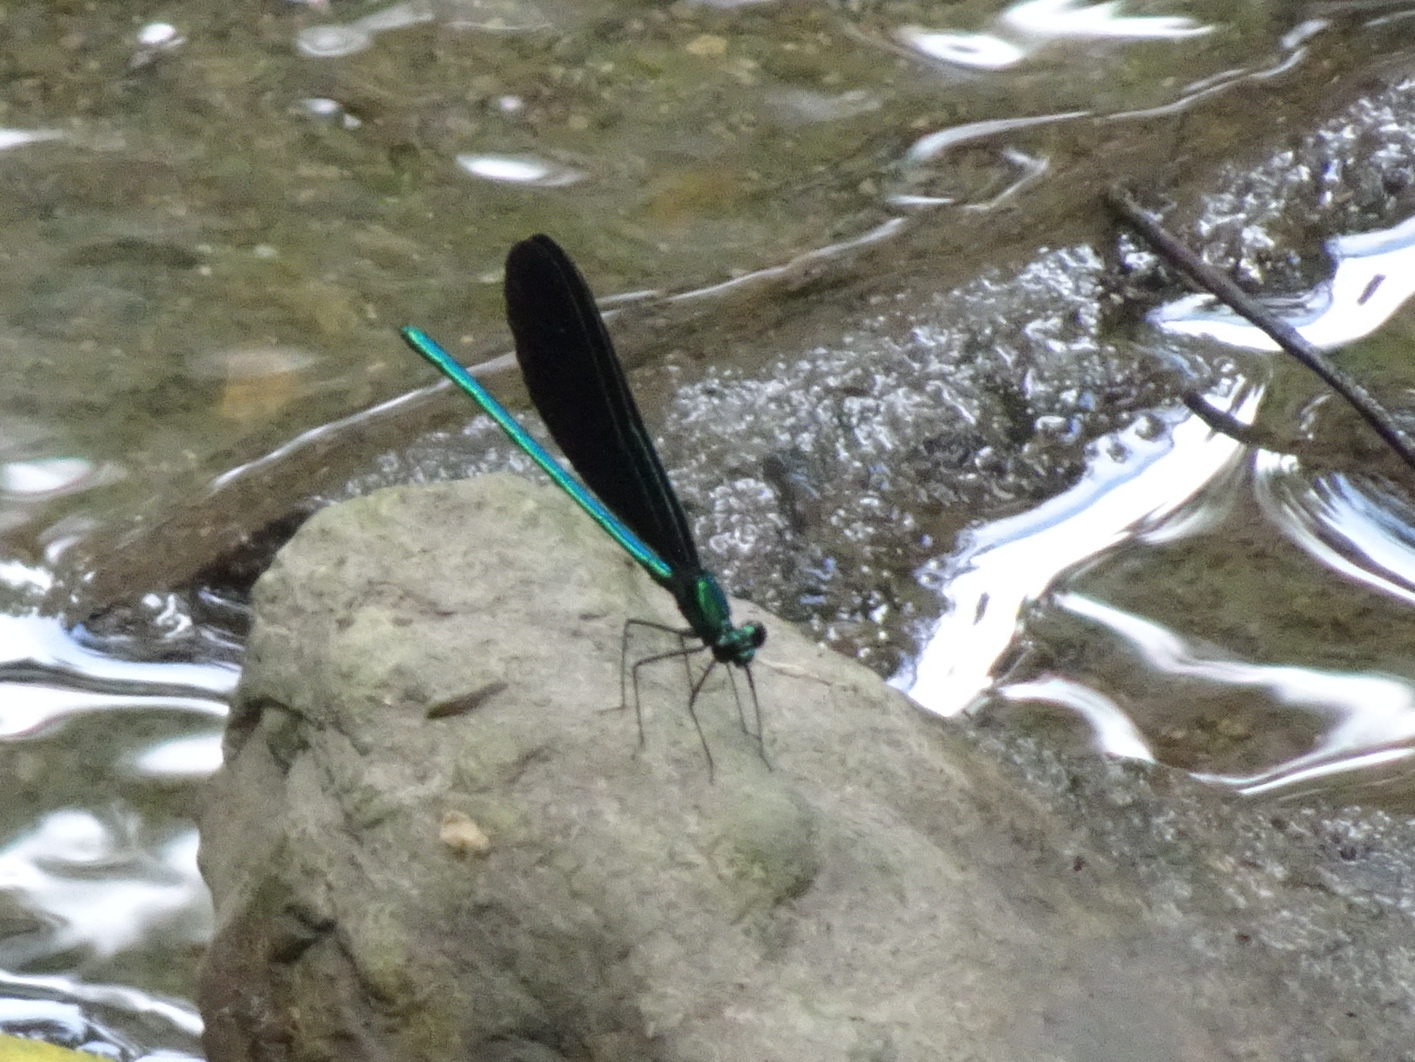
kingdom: Animalia
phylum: Arthropoda
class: Insecta
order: Odonata
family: Calopterygidae
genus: Calopteryx
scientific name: Calopteryx maculata
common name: Ebony jewelwing
